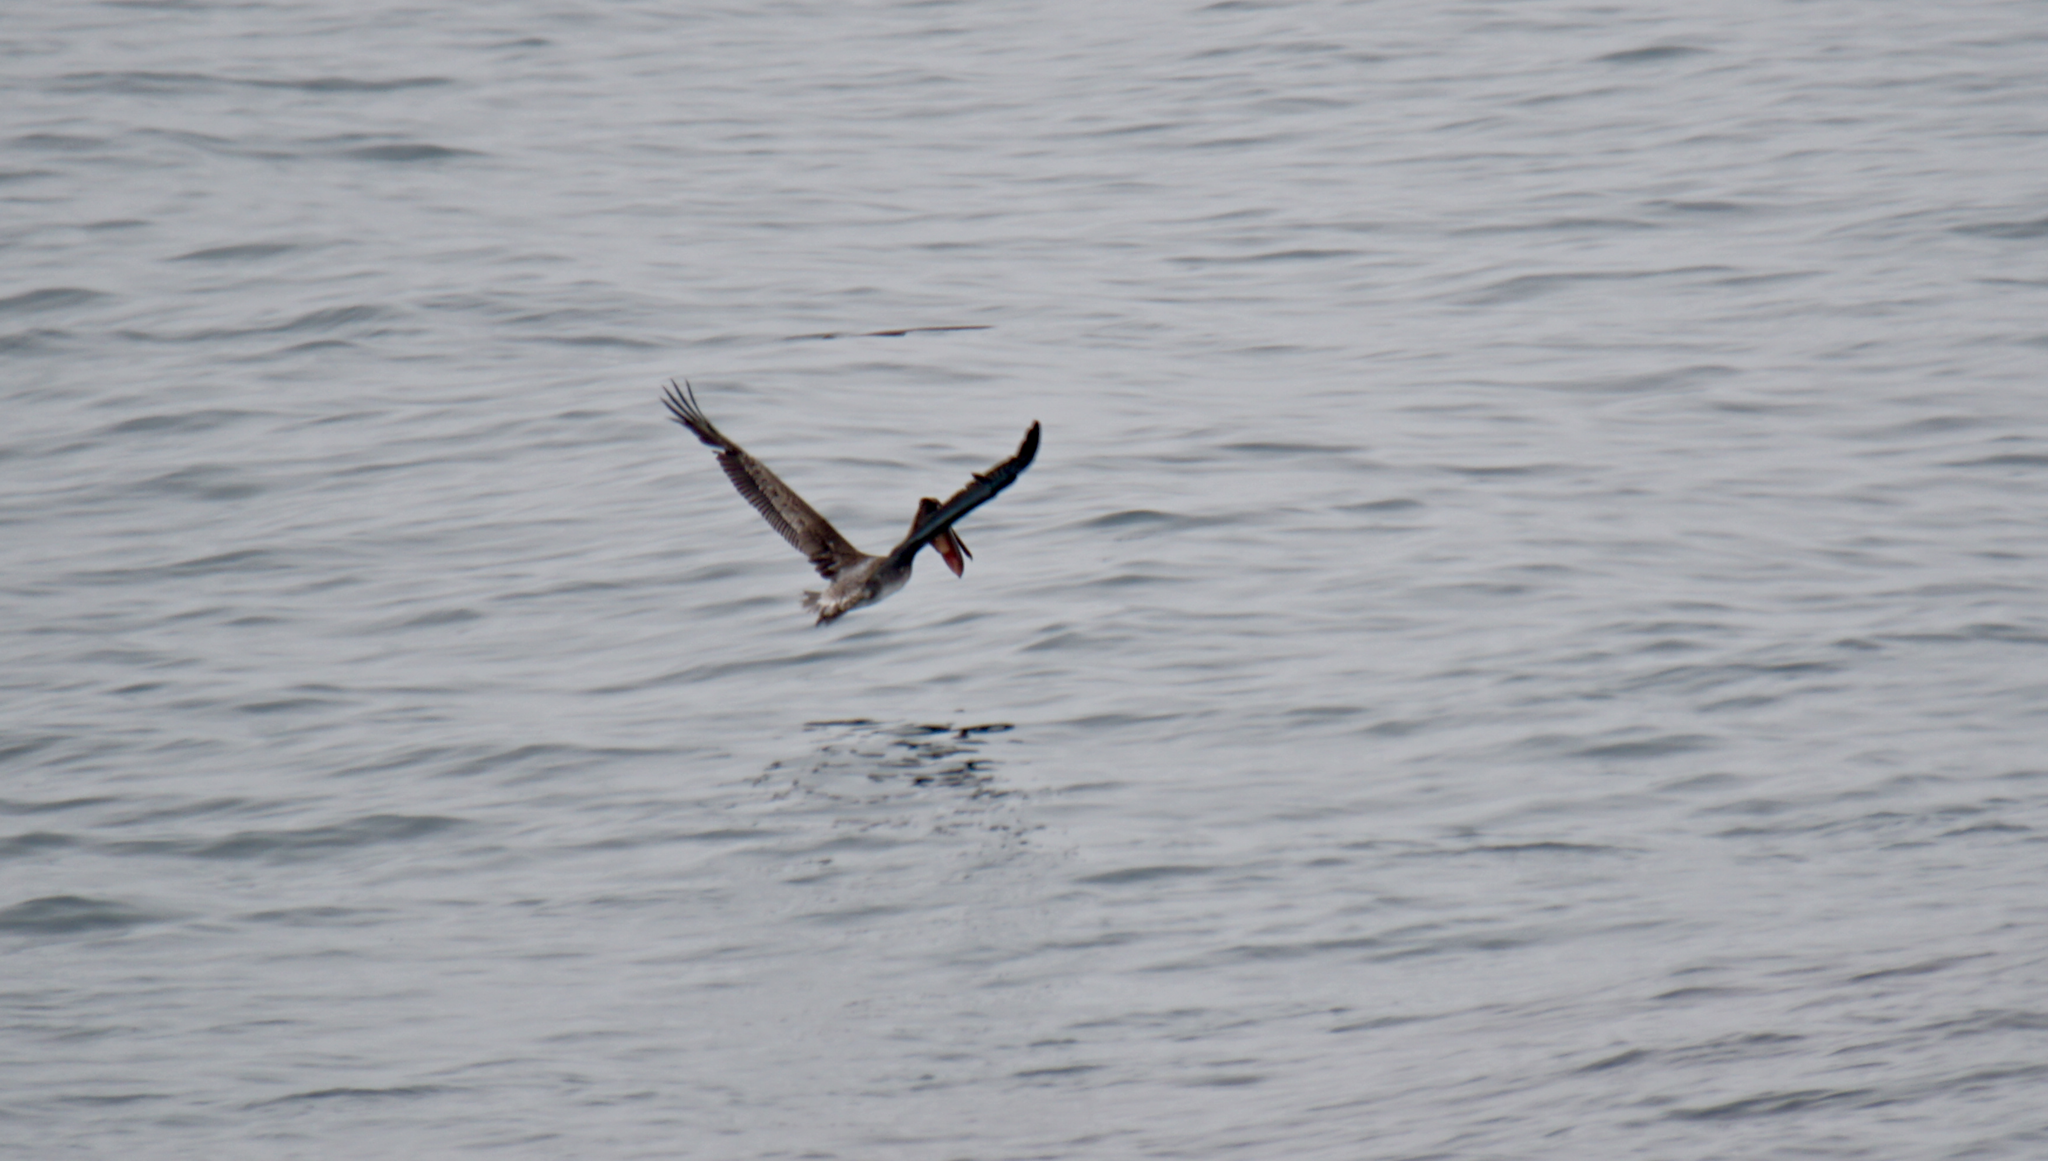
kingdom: Animalia
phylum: Chordata
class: Aves
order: Pelecaniformes
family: Pelecanidae
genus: Pelecanus
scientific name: Pelecanus occidentalis
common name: Brown pelican
